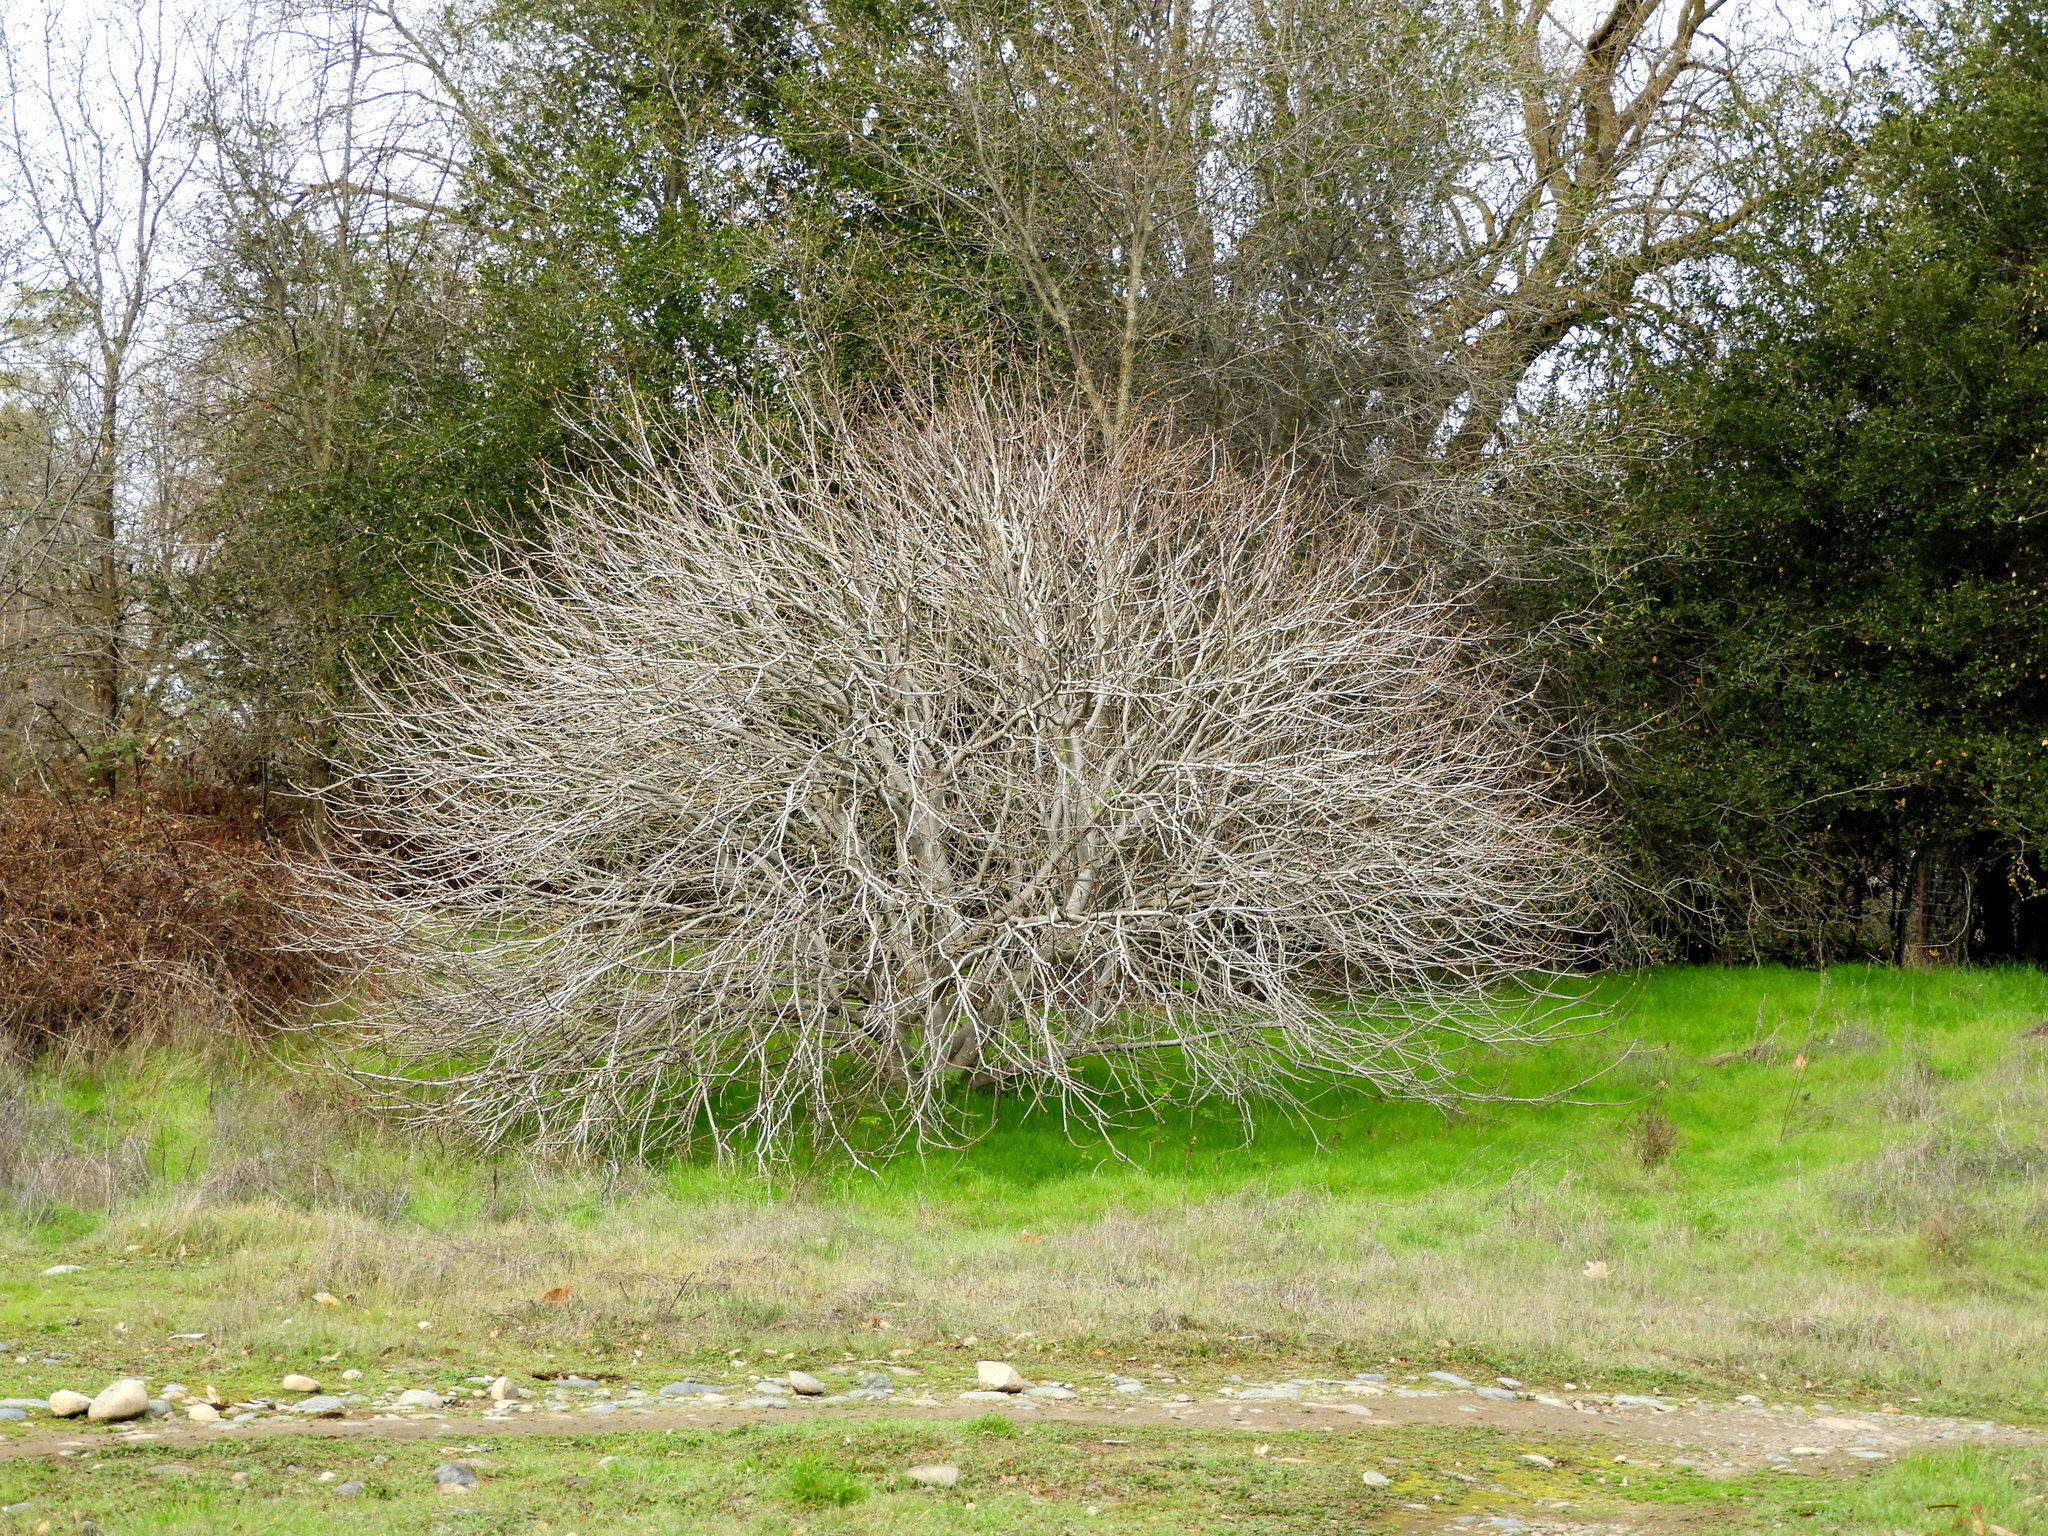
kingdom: Plantae
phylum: Tracheophyta
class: Magnoliopsida
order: Sapindales
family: Sapindaceae
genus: Aesculus
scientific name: Aesculus californica
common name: California buckeye
